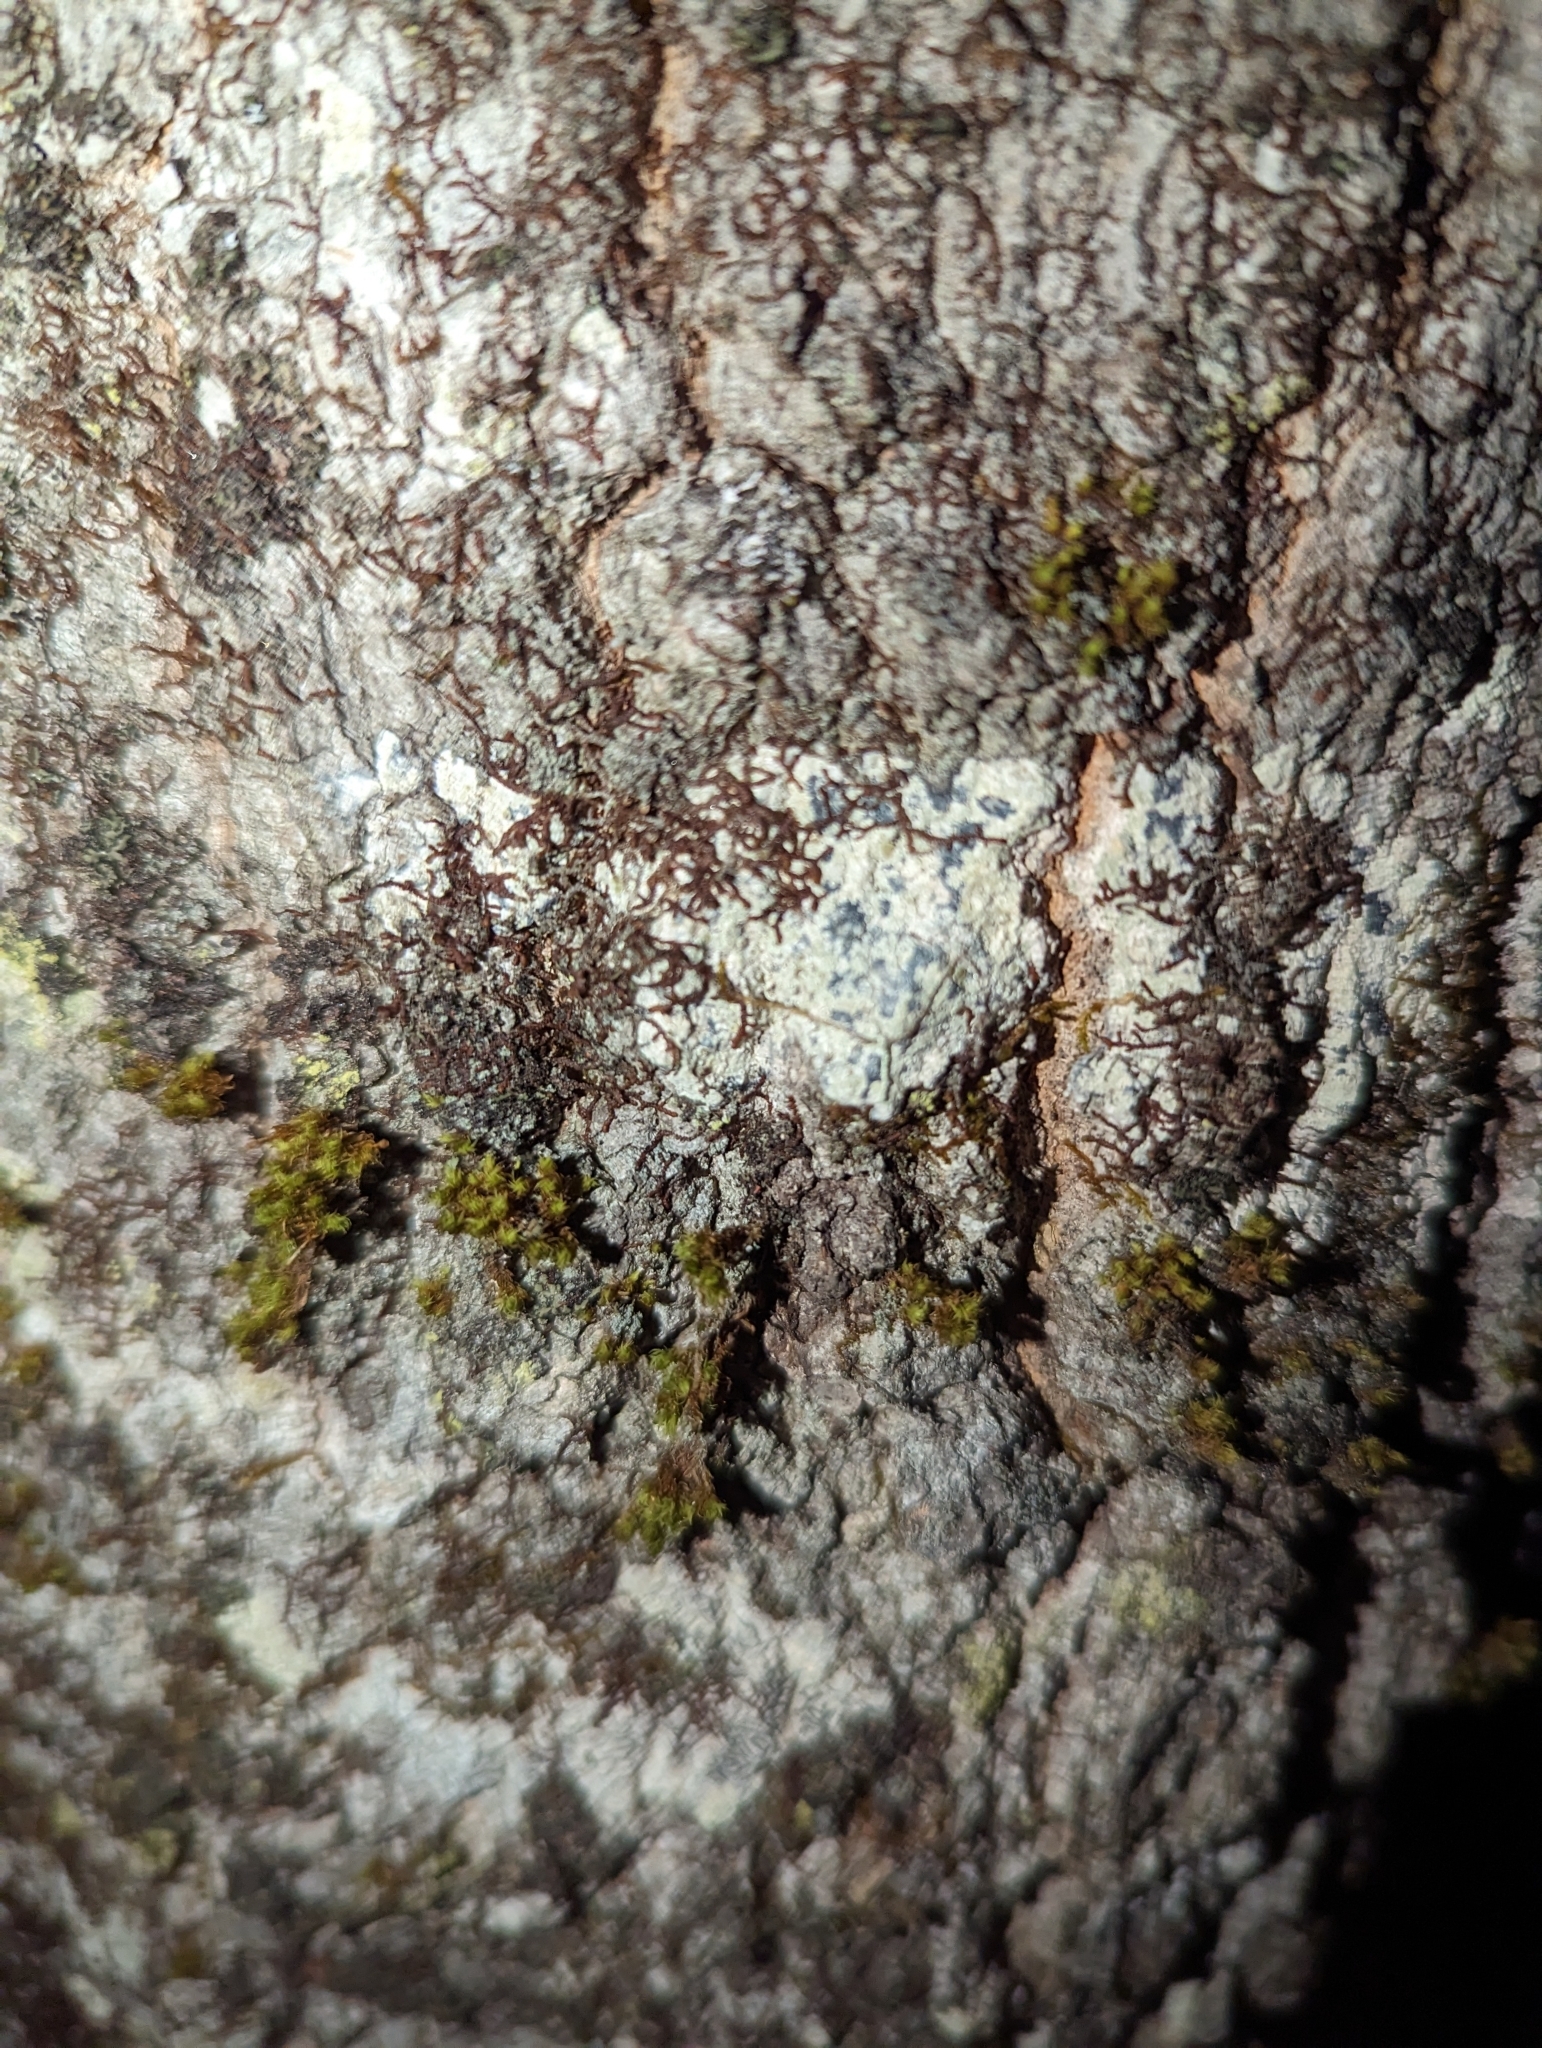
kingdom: Plantae
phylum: Marchantiophyta
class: Jungermanniopsida
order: Porellales
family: Frullaniaceae
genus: Frullania
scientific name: Frullania eboracensis
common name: New york scalewort
